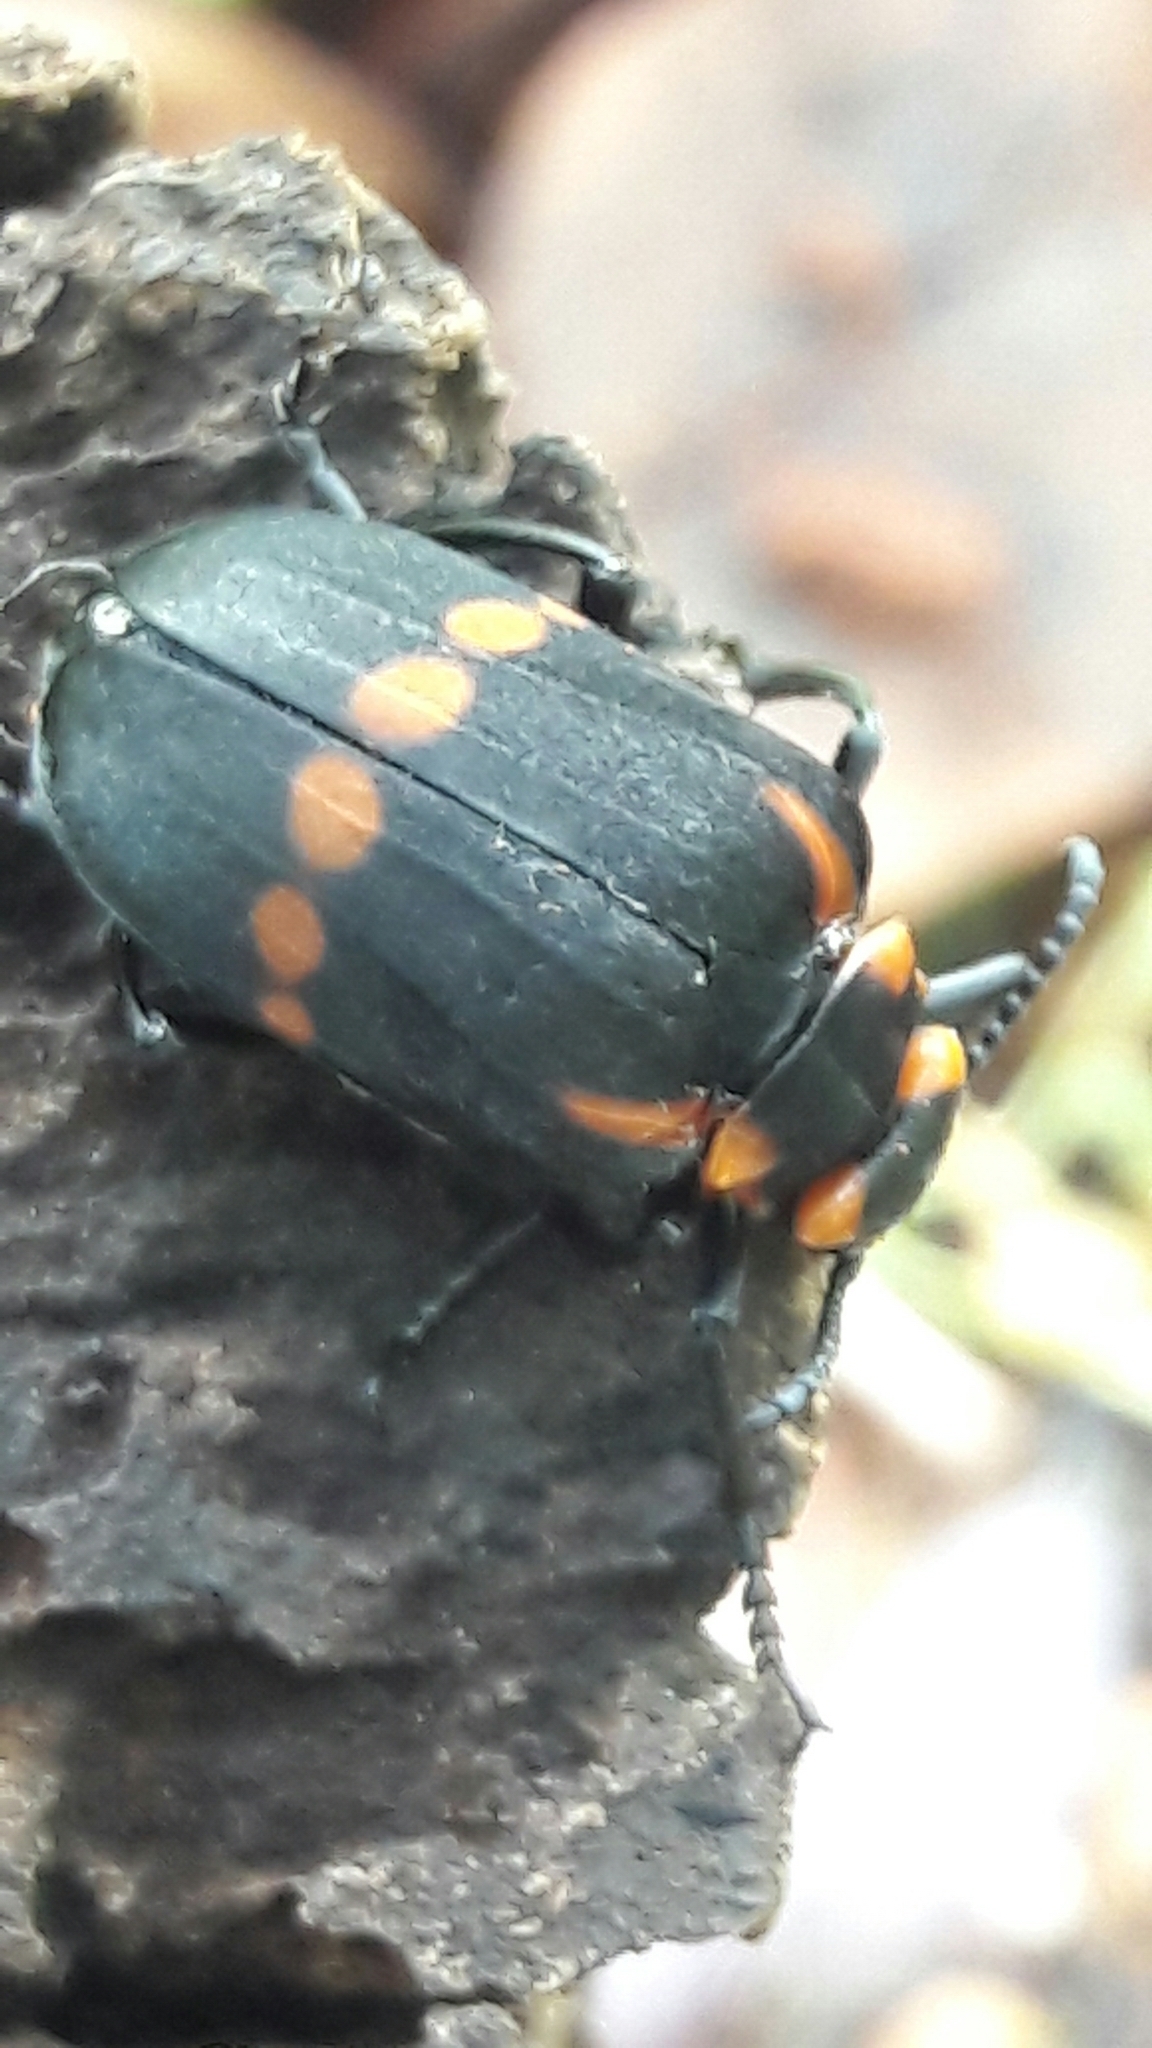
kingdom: Animalia
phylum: Arthropoda
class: Insecta
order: Coleoptera
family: Meloidae
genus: Tetraonyx
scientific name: Tetraonyx
